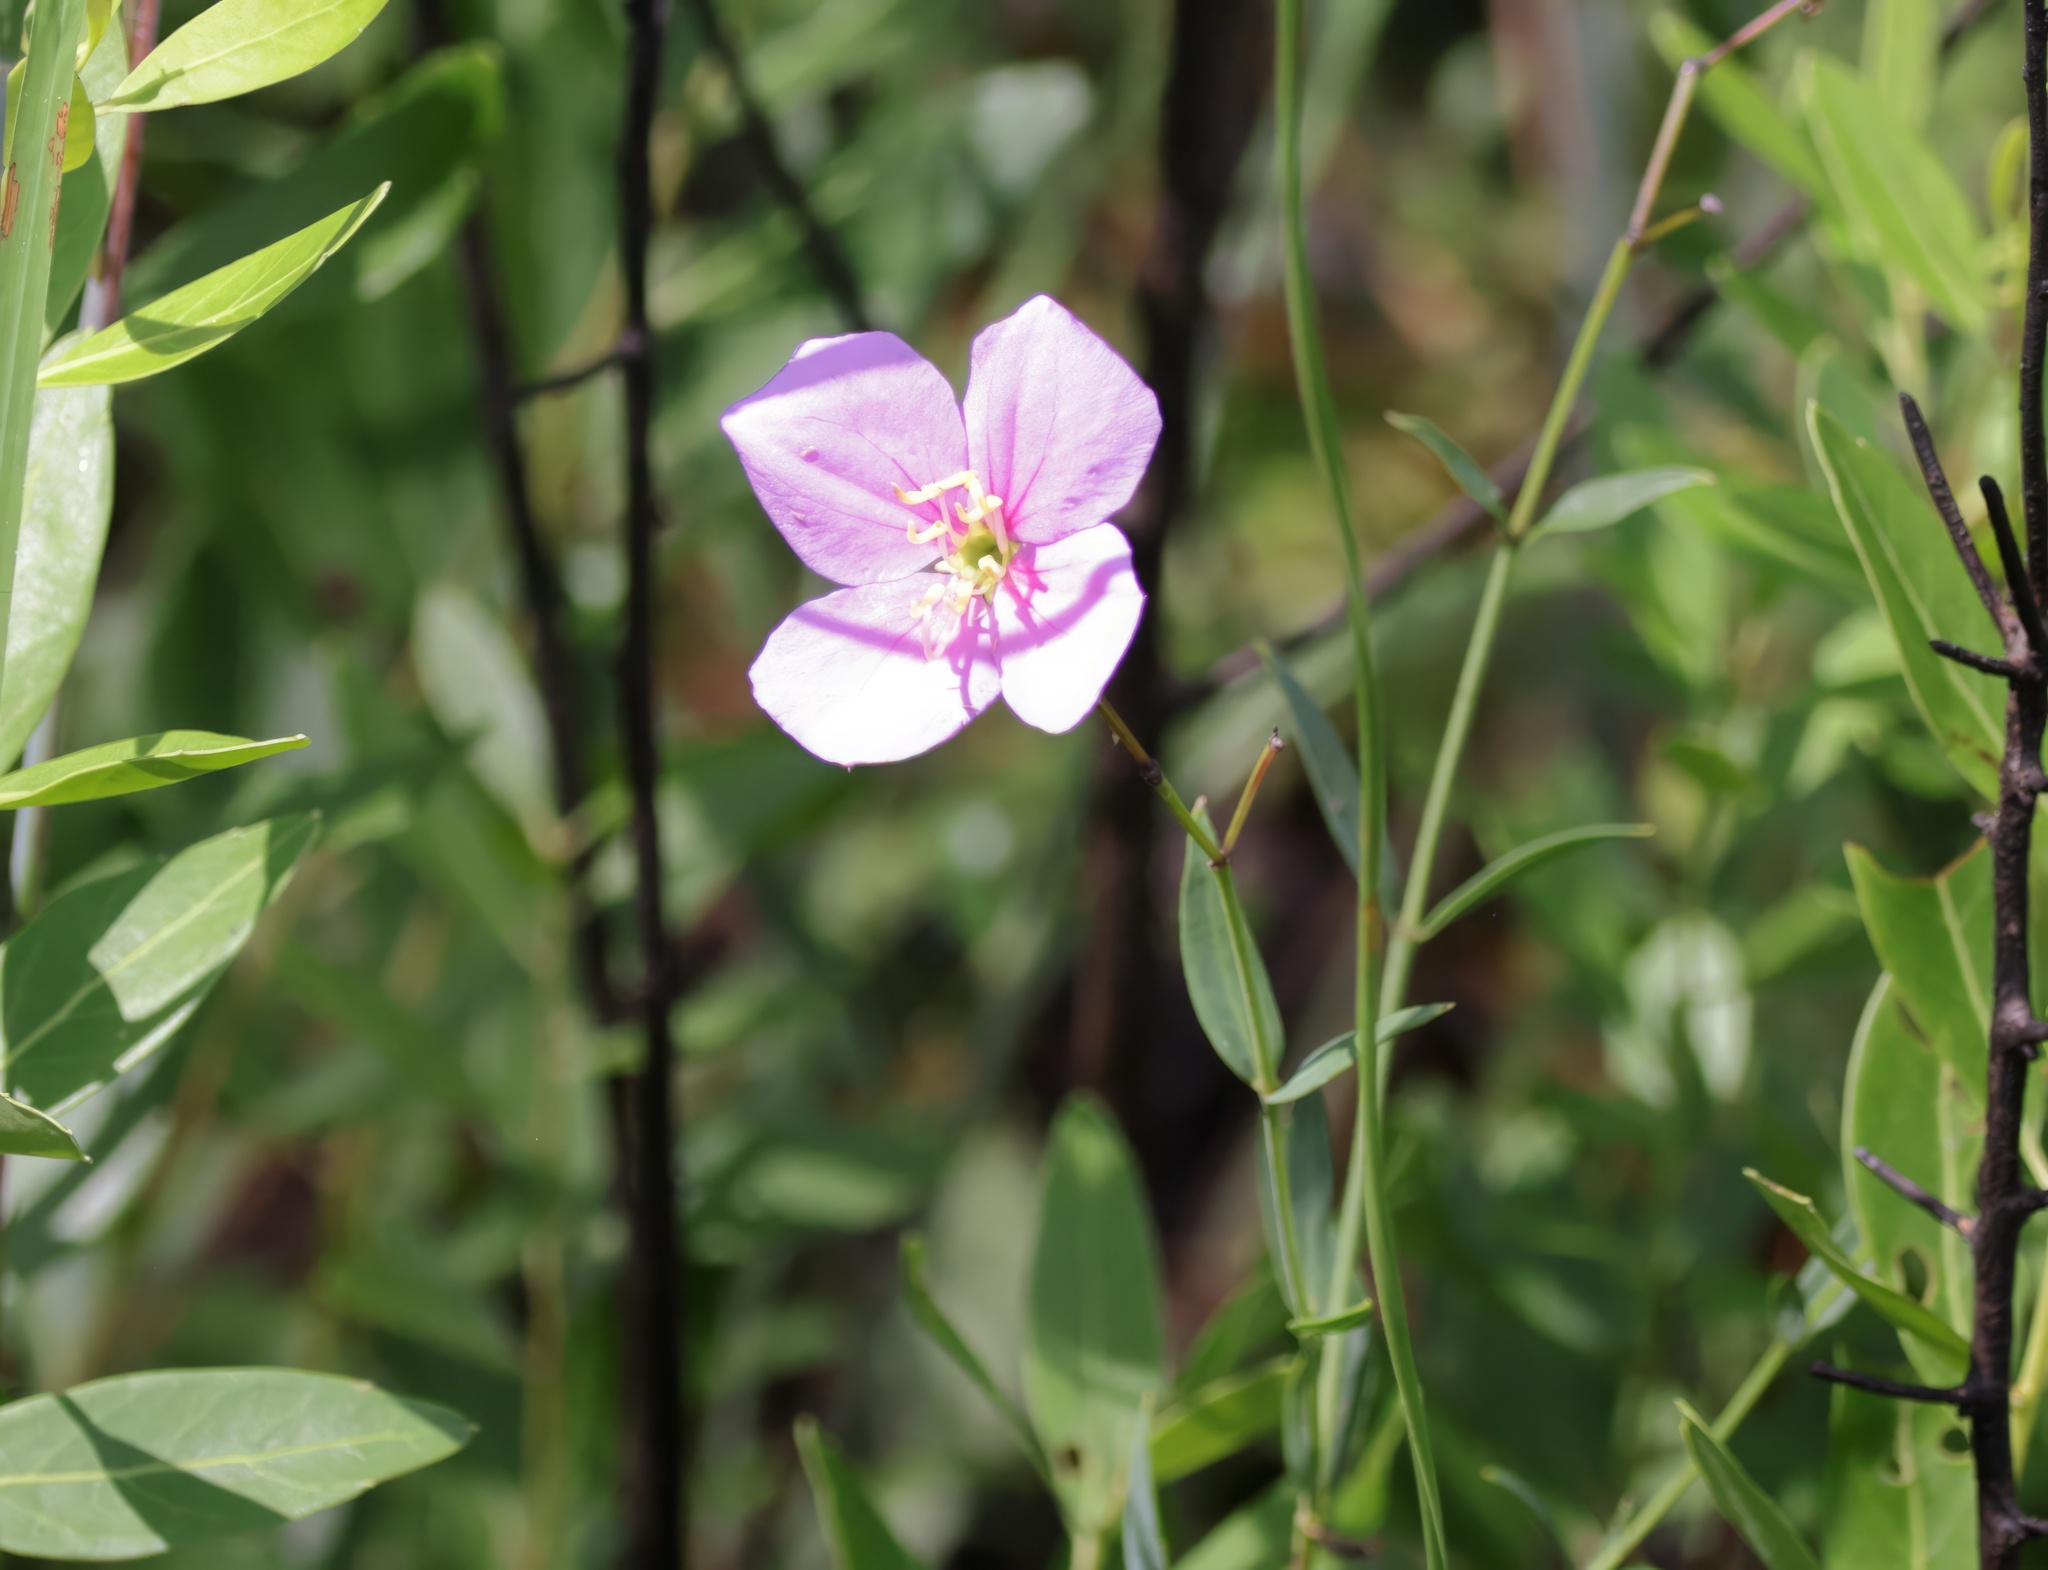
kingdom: Plantae
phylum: Tracheophyta
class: Magnoliopsida
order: Myrtales
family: Melastomataceae
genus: Rhexia
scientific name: Rhexia alifanus
